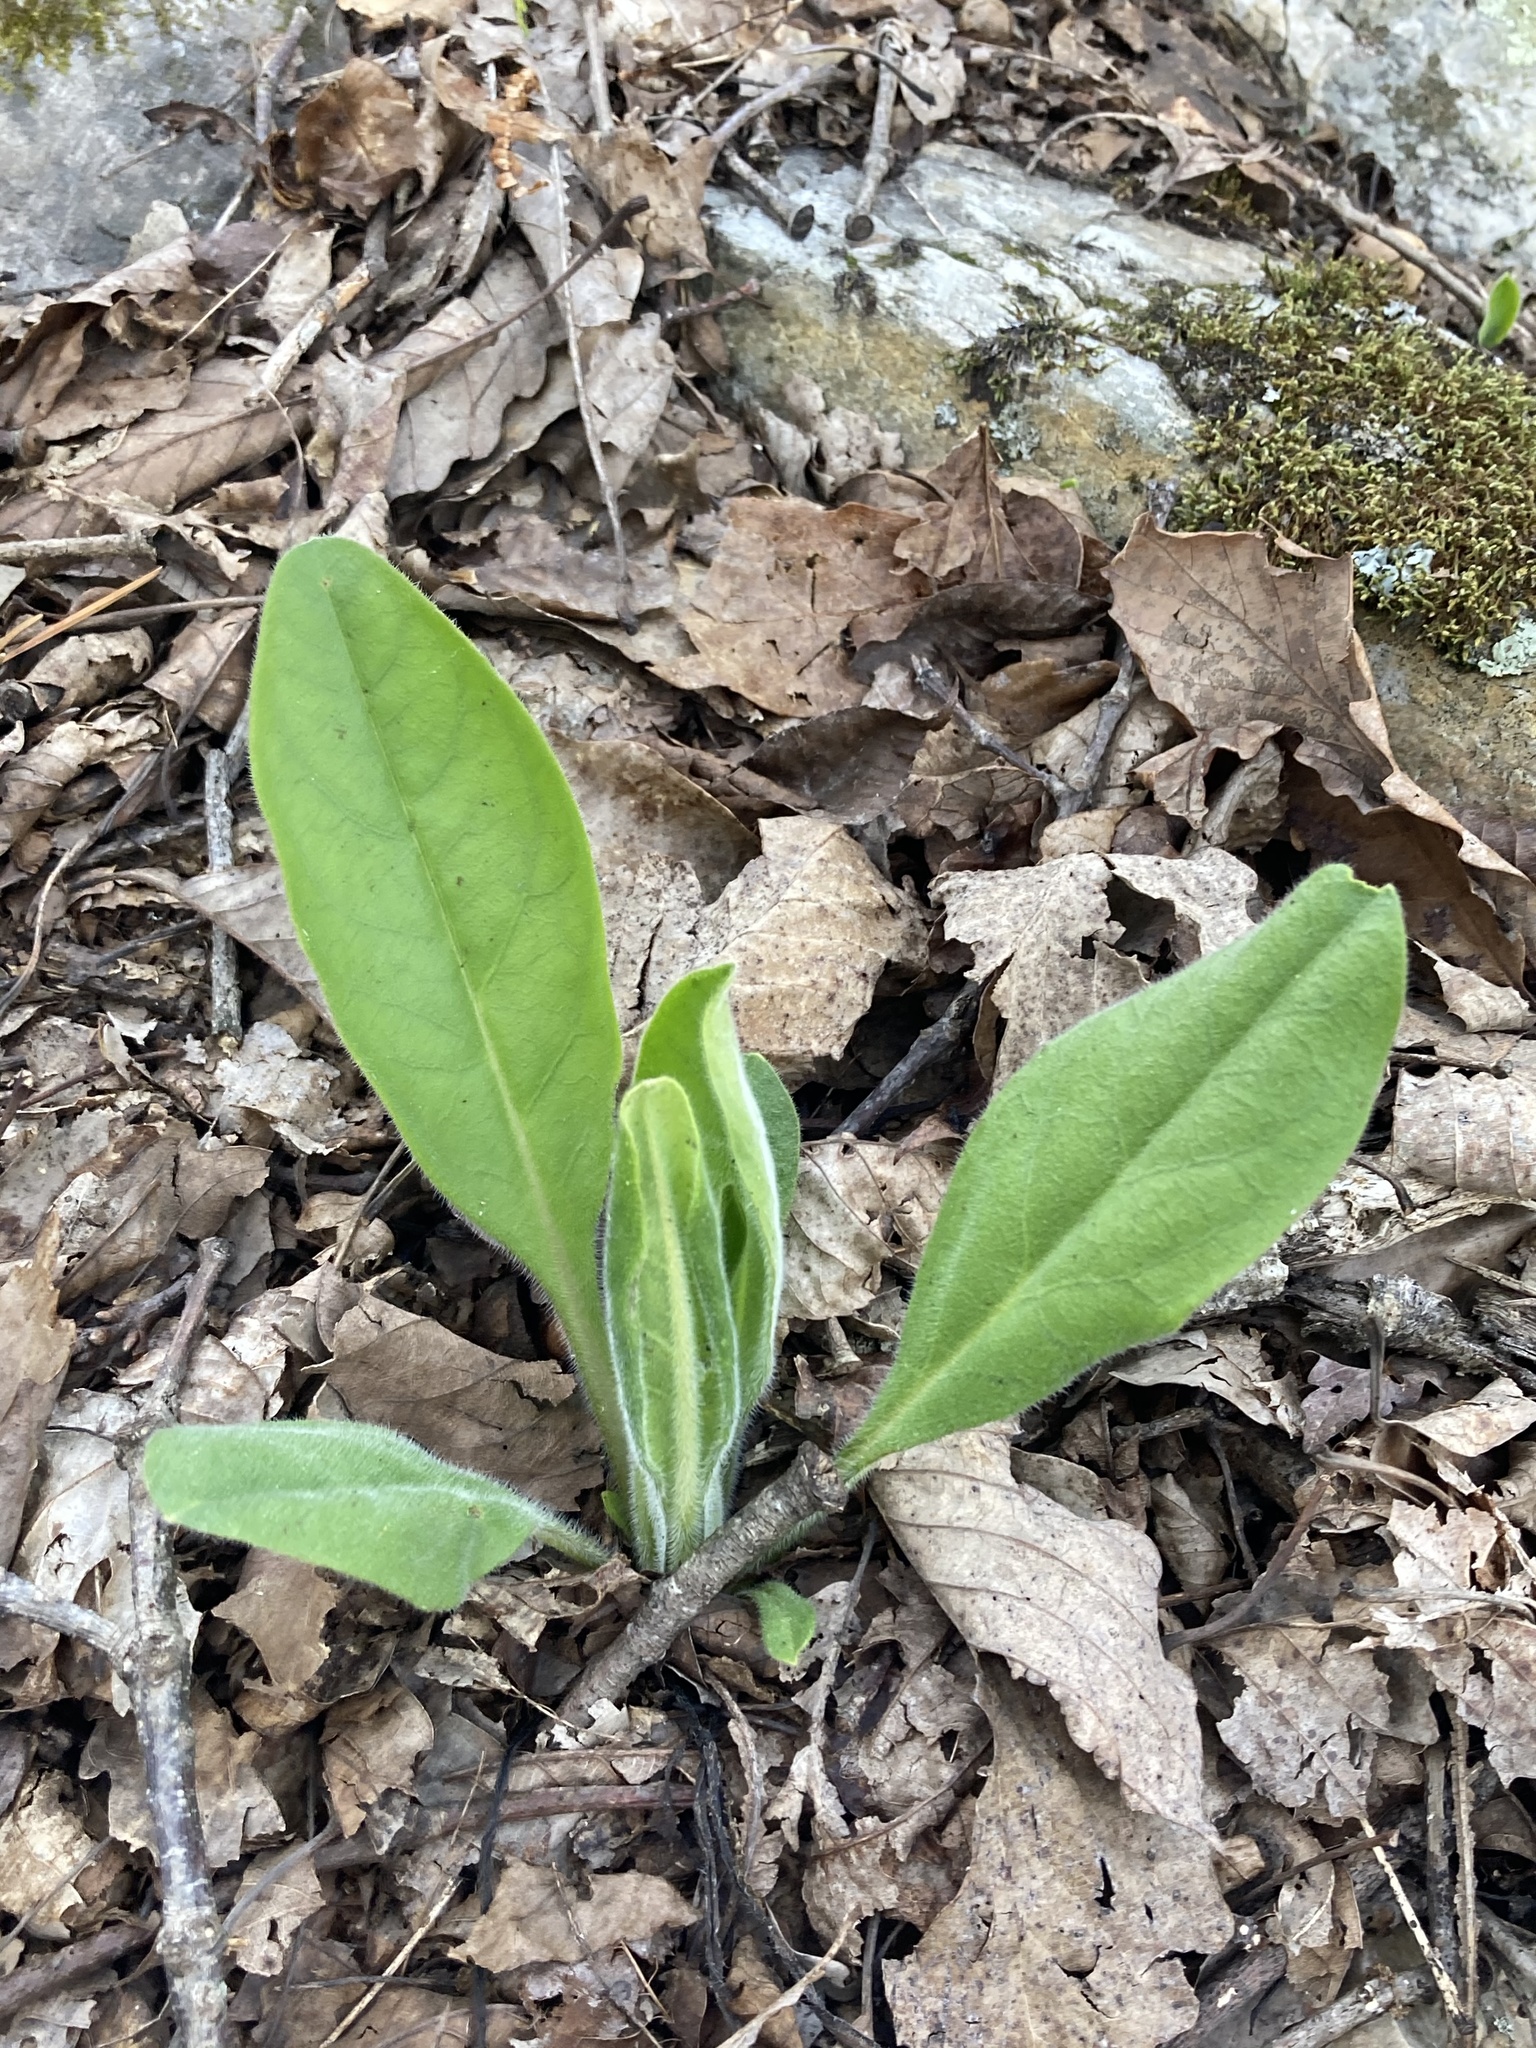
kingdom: Plantae
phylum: Tracheophyta
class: Magnoliopsida
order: Boraginales
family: Boraginaceae
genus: Andersonglossum
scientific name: Andersonglossum virginianum
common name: Wild comfrey
